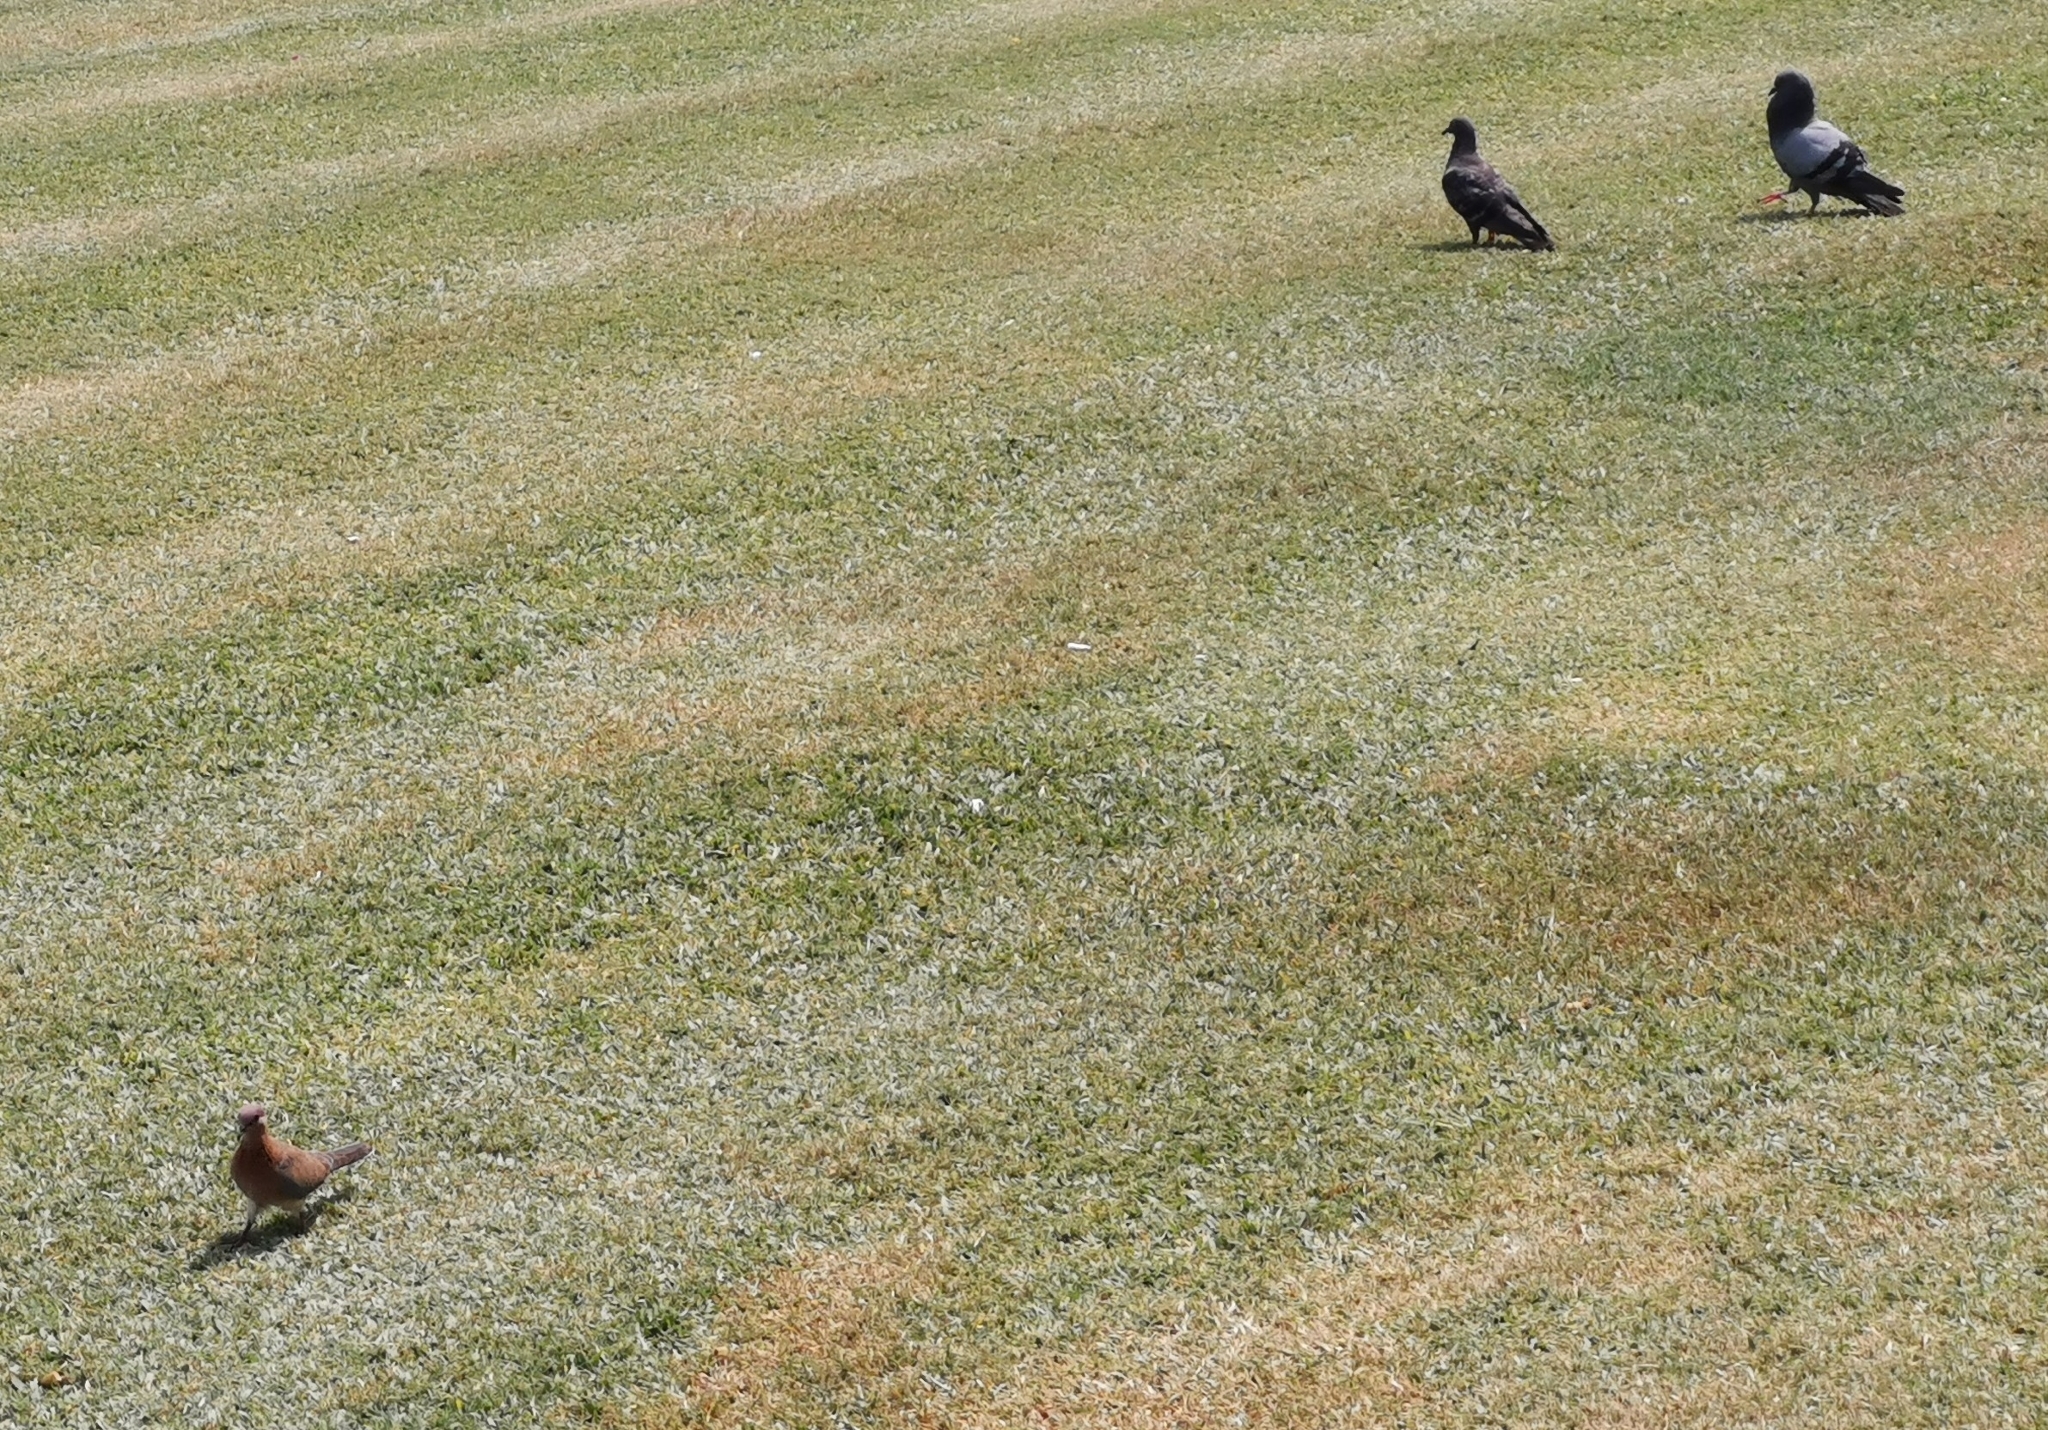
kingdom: Animalia
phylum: Chordata
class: Aves
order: Columbiformes
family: Columbidae
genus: Spilopelia
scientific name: Spilopelia senegalensis
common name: Laughing dove
